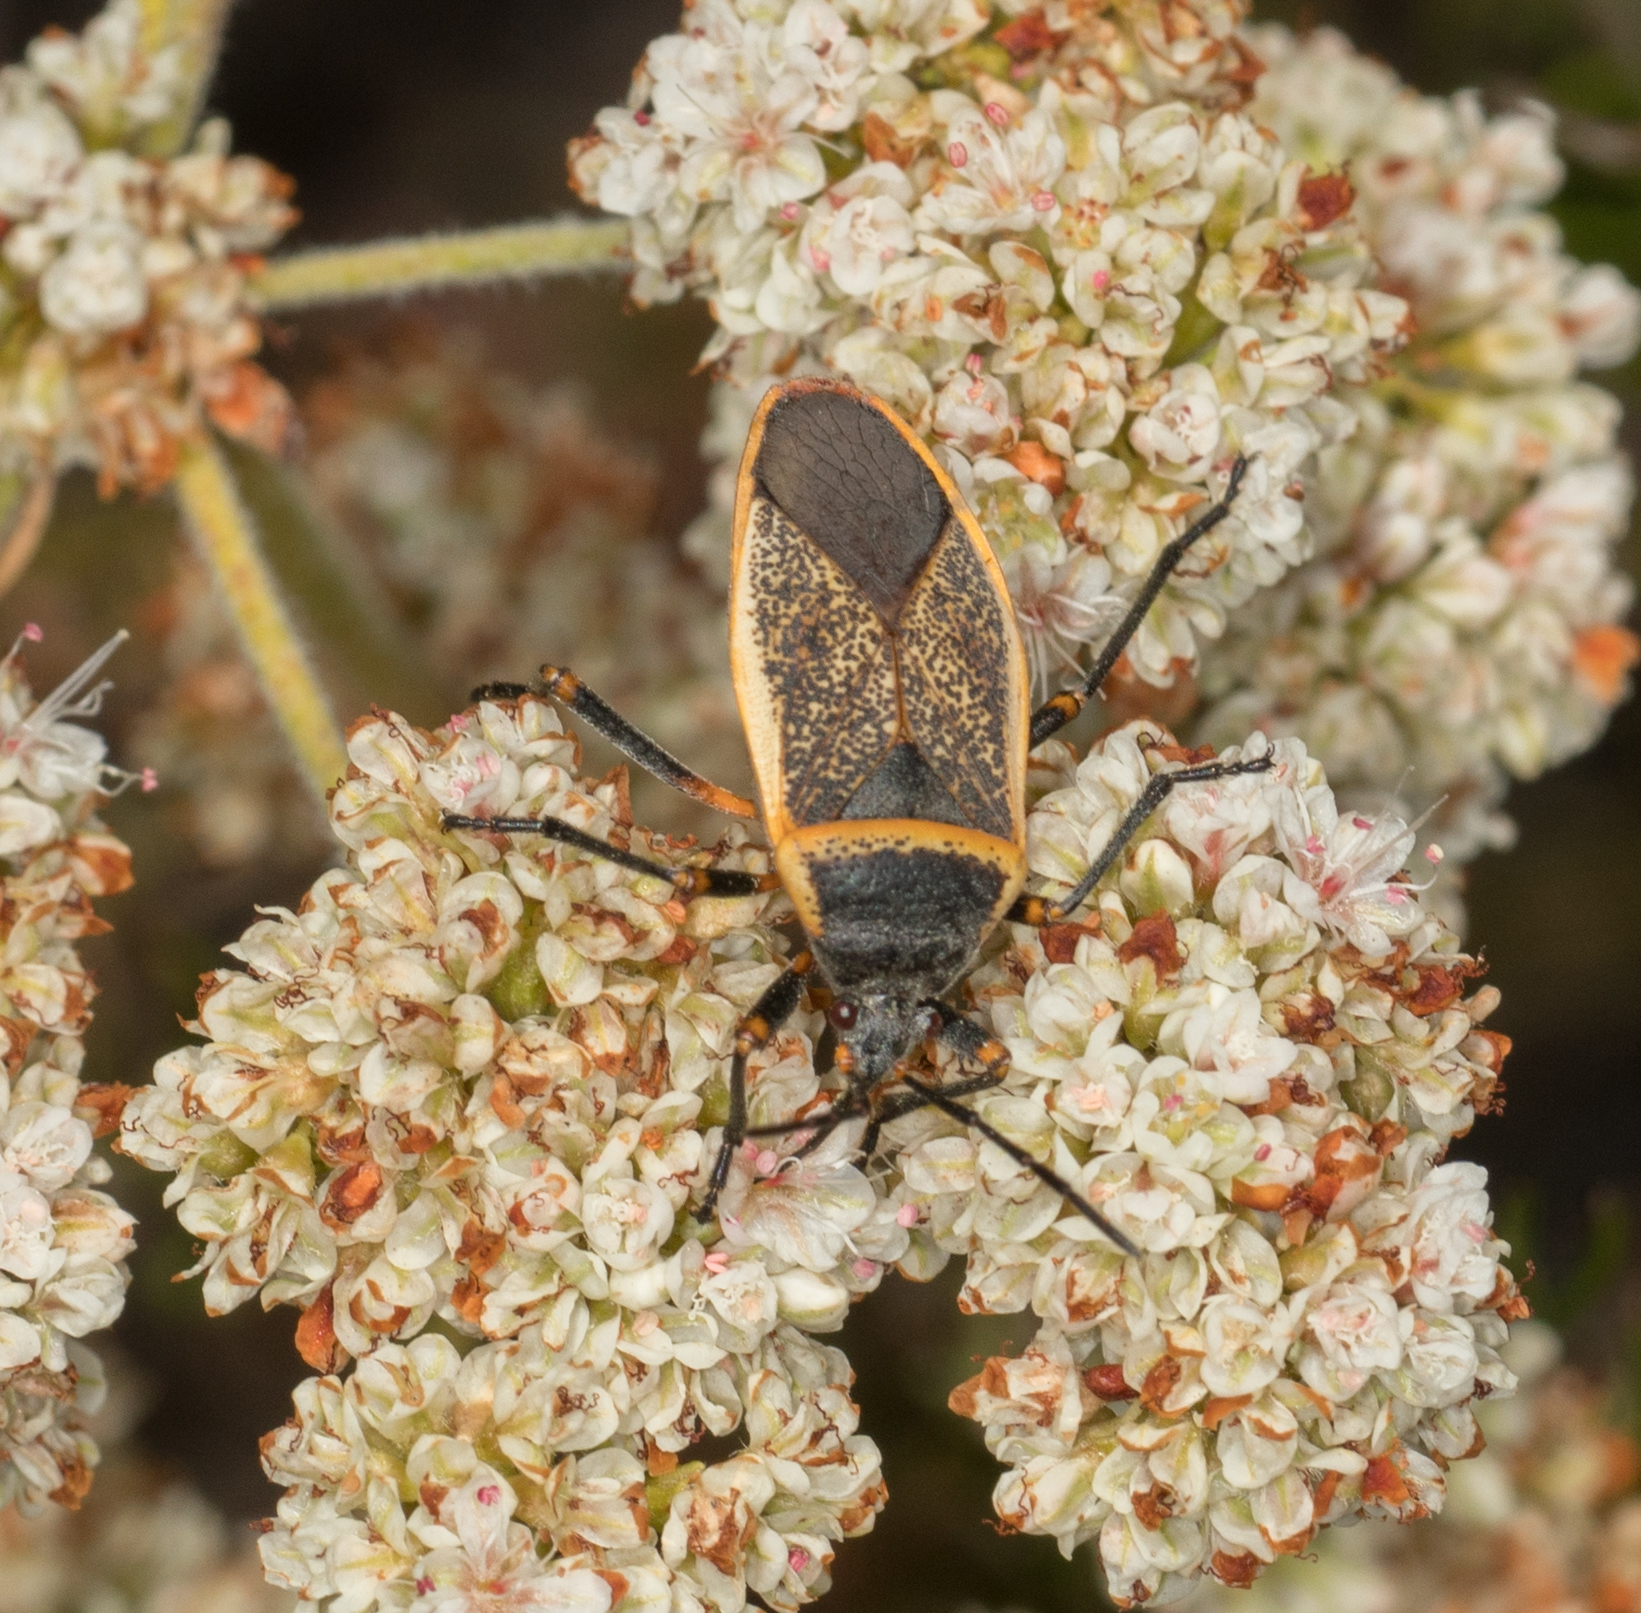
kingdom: Animalia
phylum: Arthropoda
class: Insecta
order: Hemiptera
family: Largidae
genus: Largus
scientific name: Largus californicus
